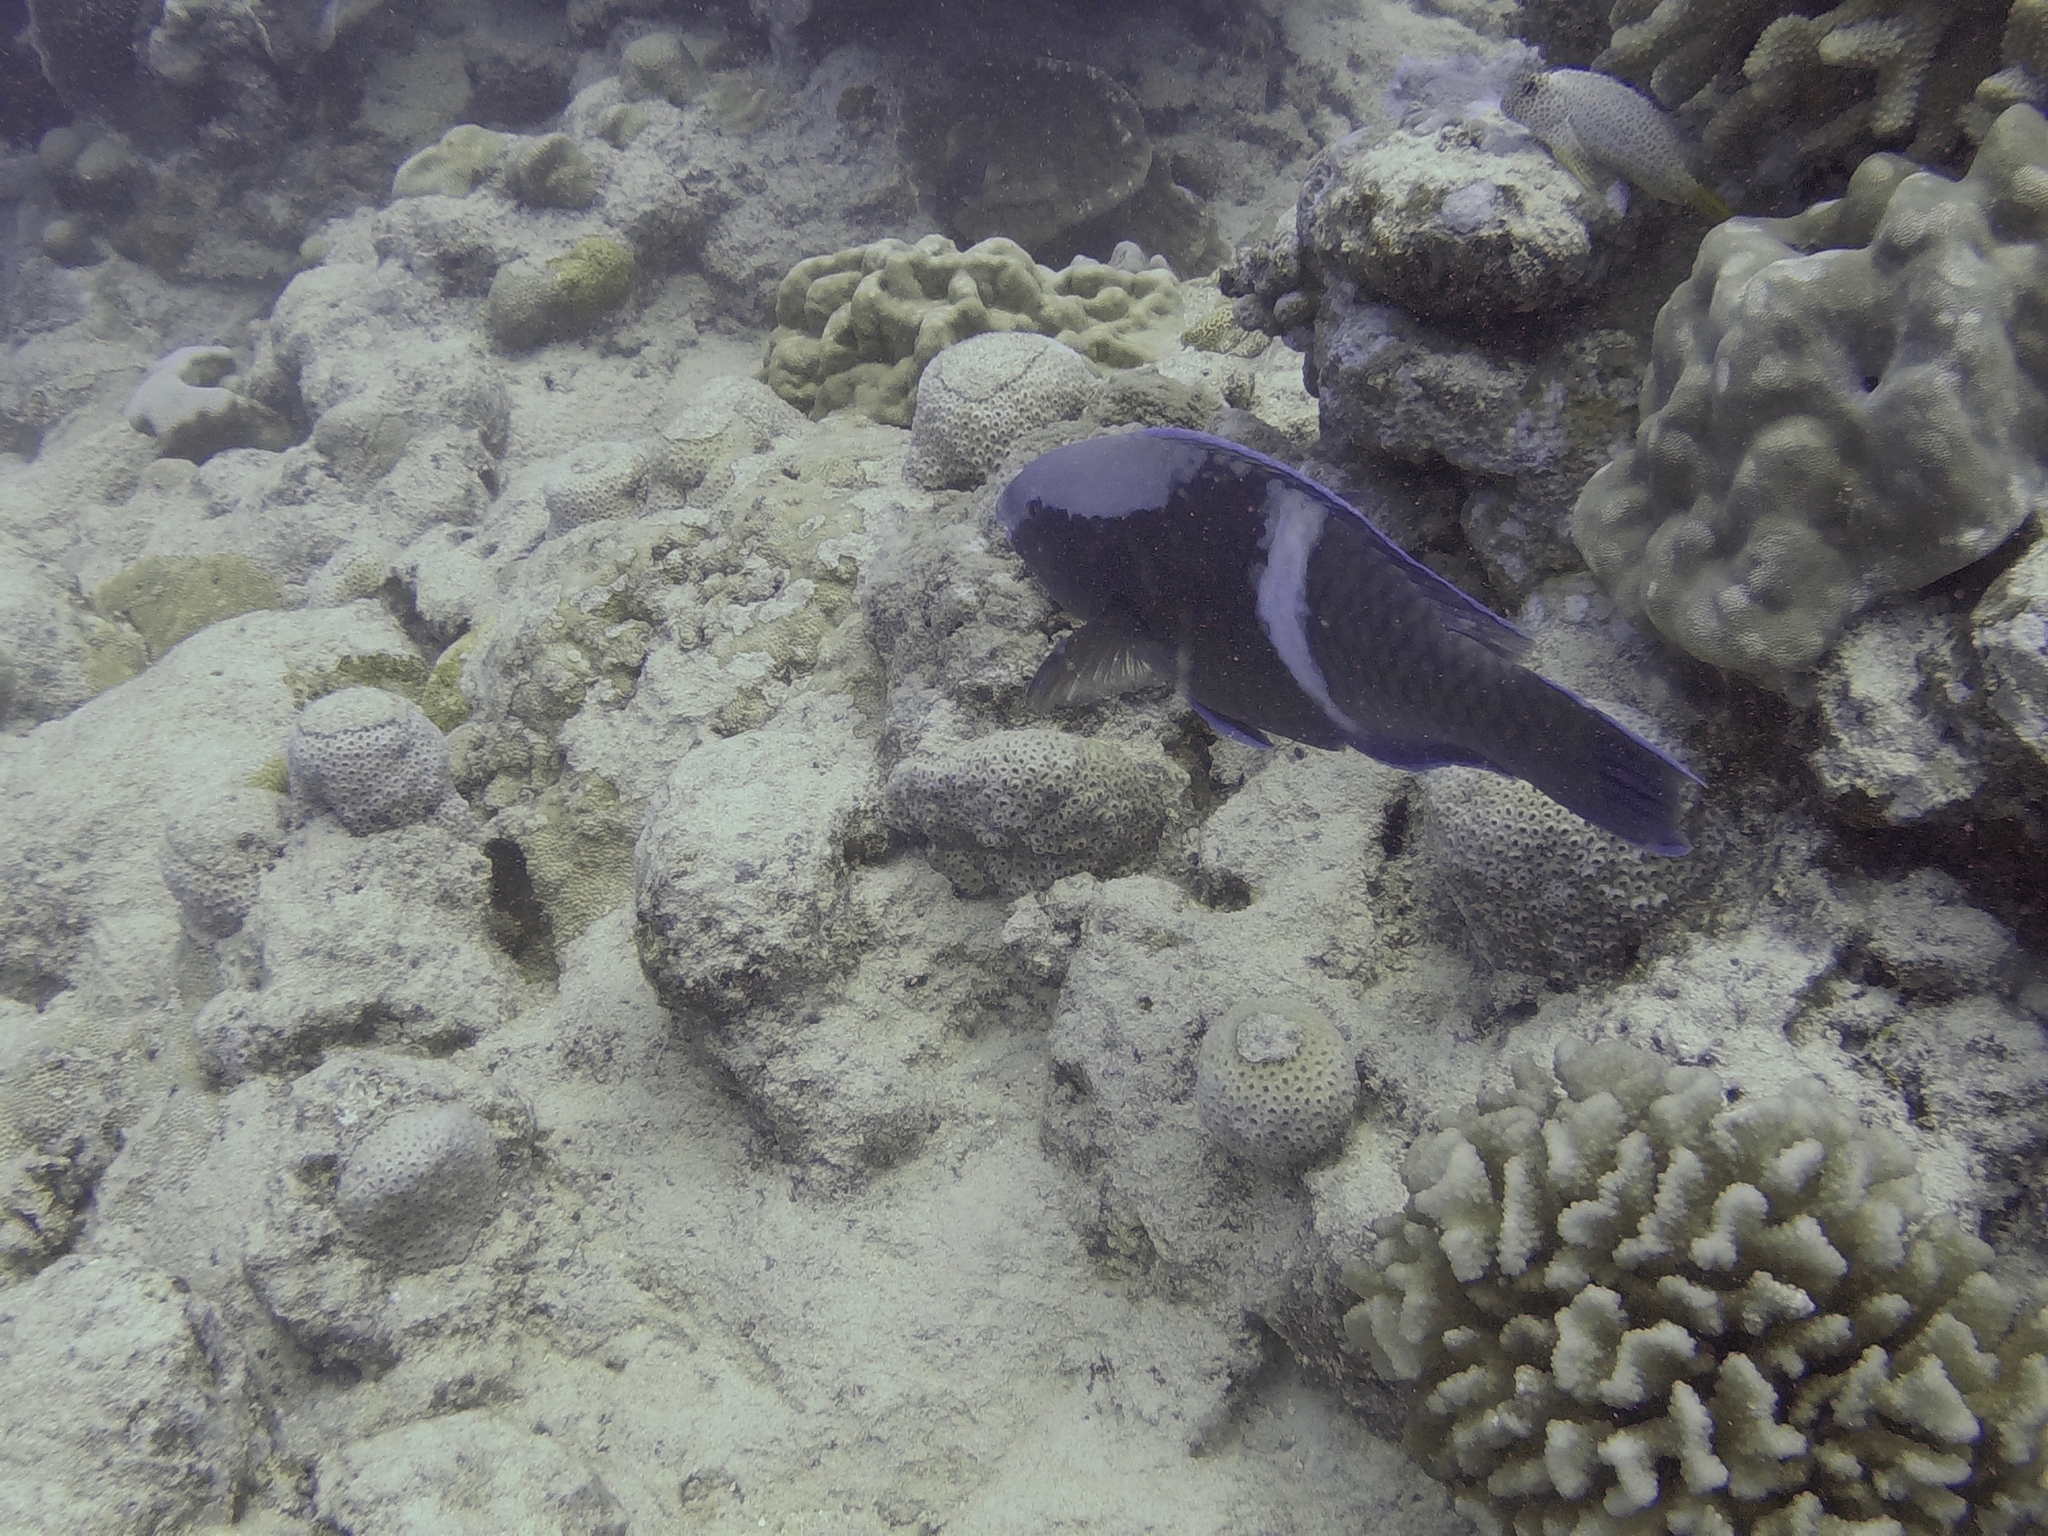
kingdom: Animalia
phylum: Chordata
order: Perciformes
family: Scaridae
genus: Scarus
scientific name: Scarus schlegeli
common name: Schlegel's parrotfish
